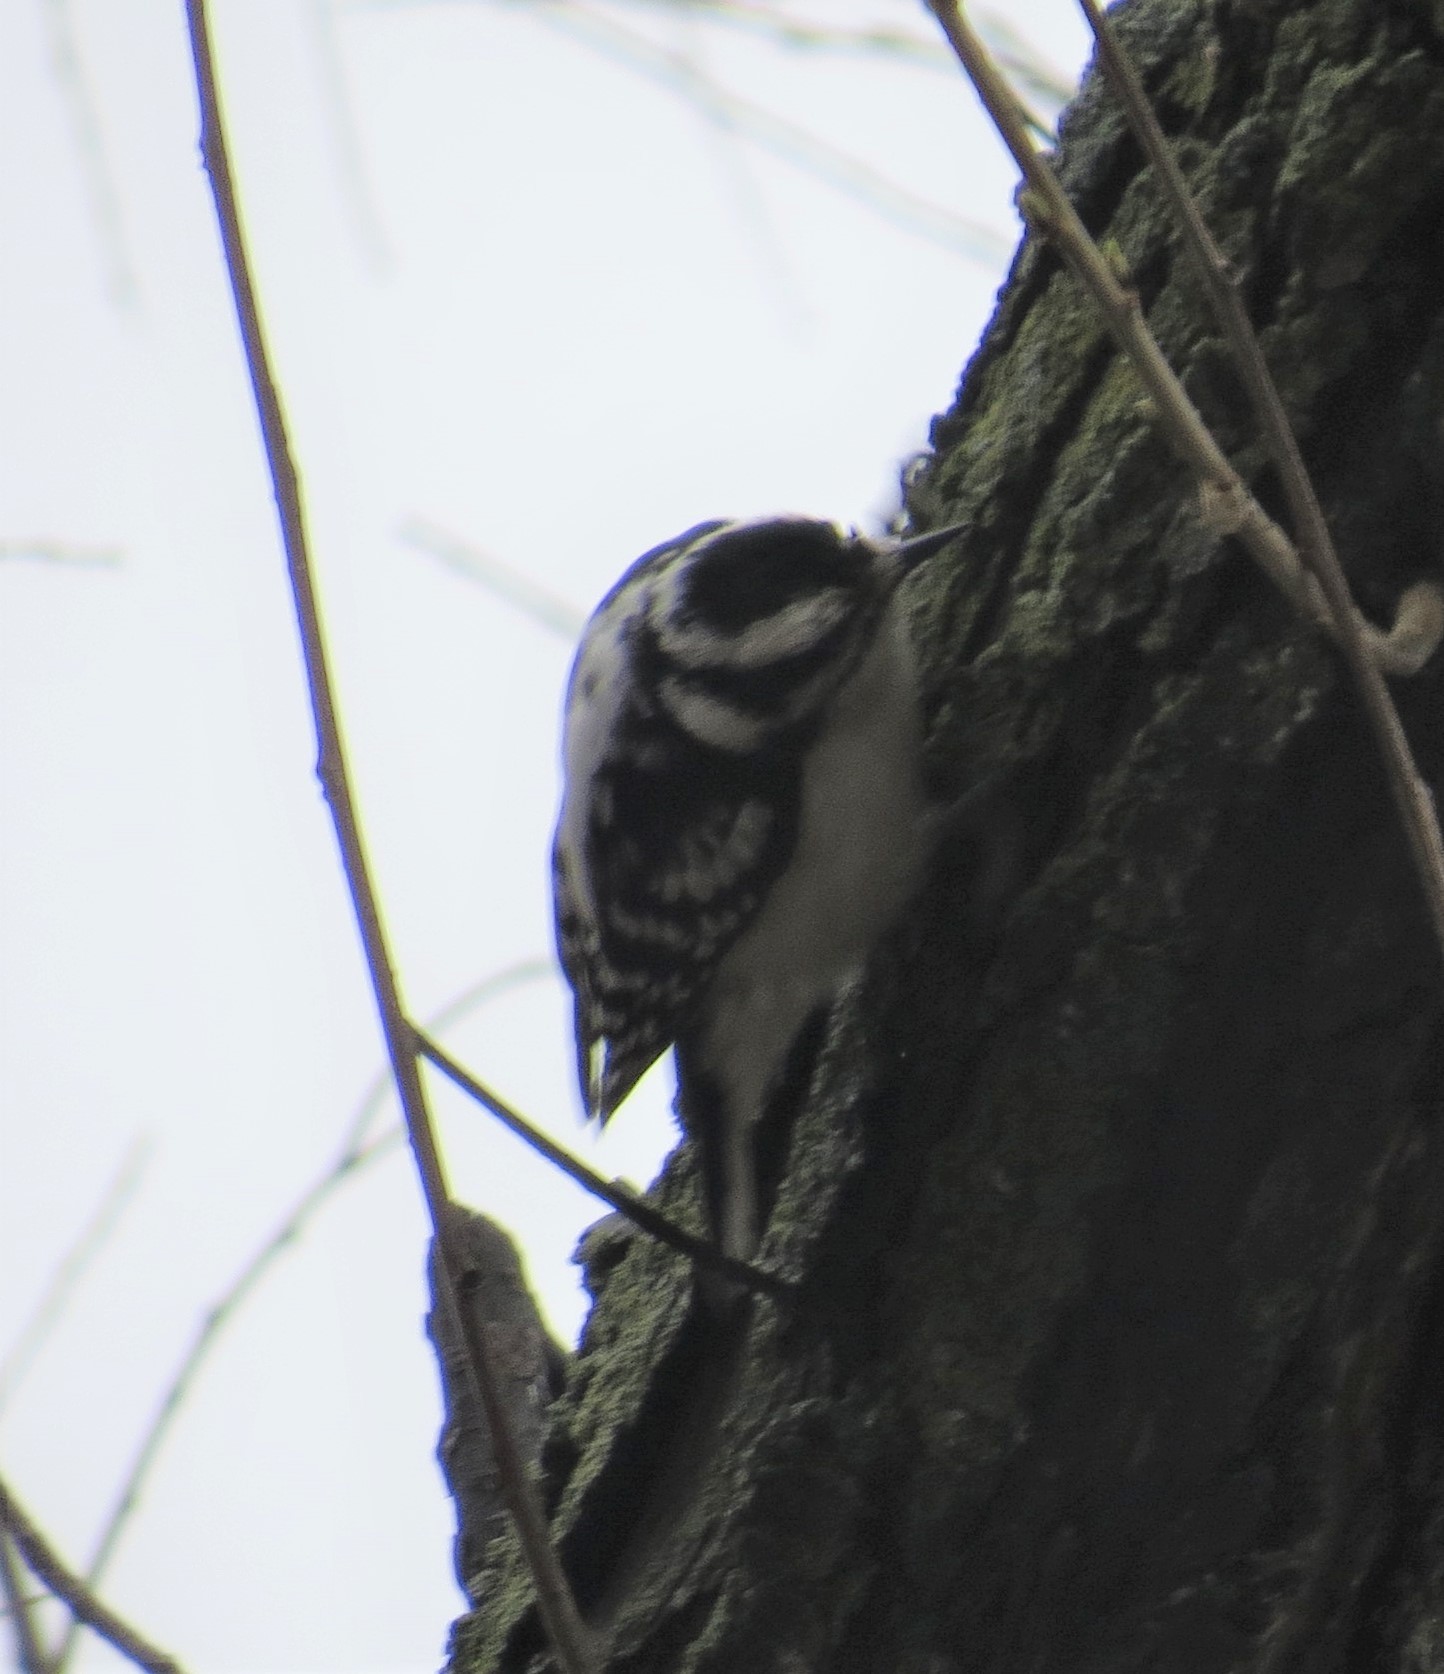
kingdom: Animalia
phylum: Chordata
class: Aves
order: Piciformes
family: Picidae
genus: Dryobates
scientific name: Dryobates pubescens
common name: Downy woodpecker
